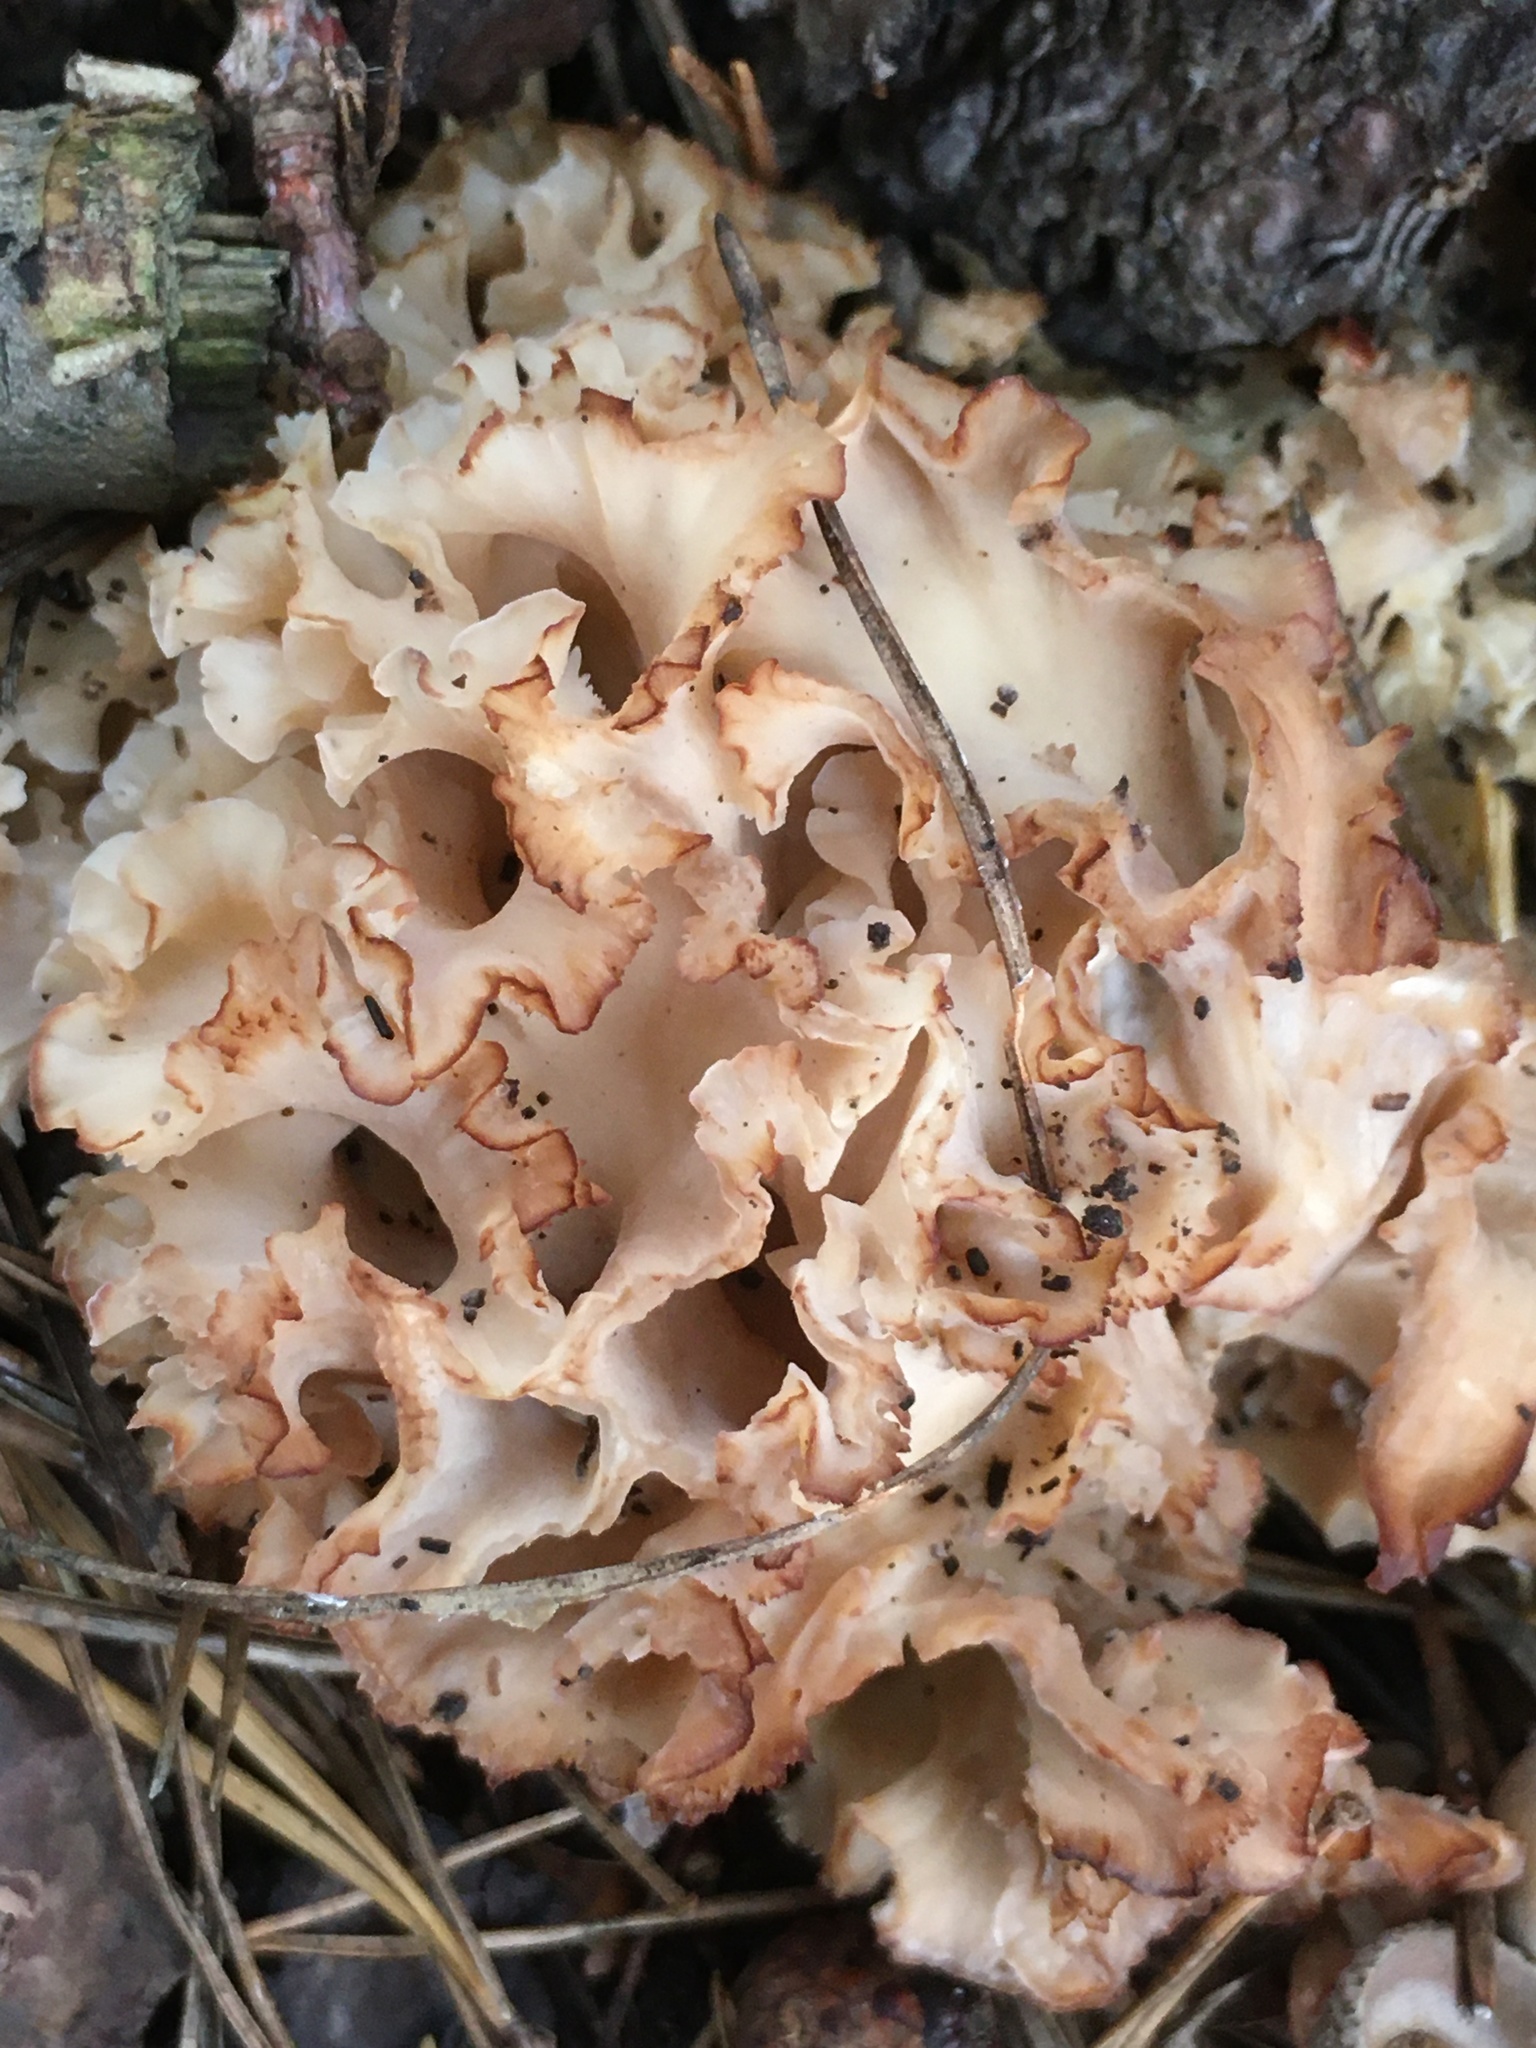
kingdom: Fungi
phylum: Basidiomycota
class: Agaricomycetes
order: Polyporales
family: Sparassidaceae
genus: Sparassis
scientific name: Sparassis crispa
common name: Brain fungus
